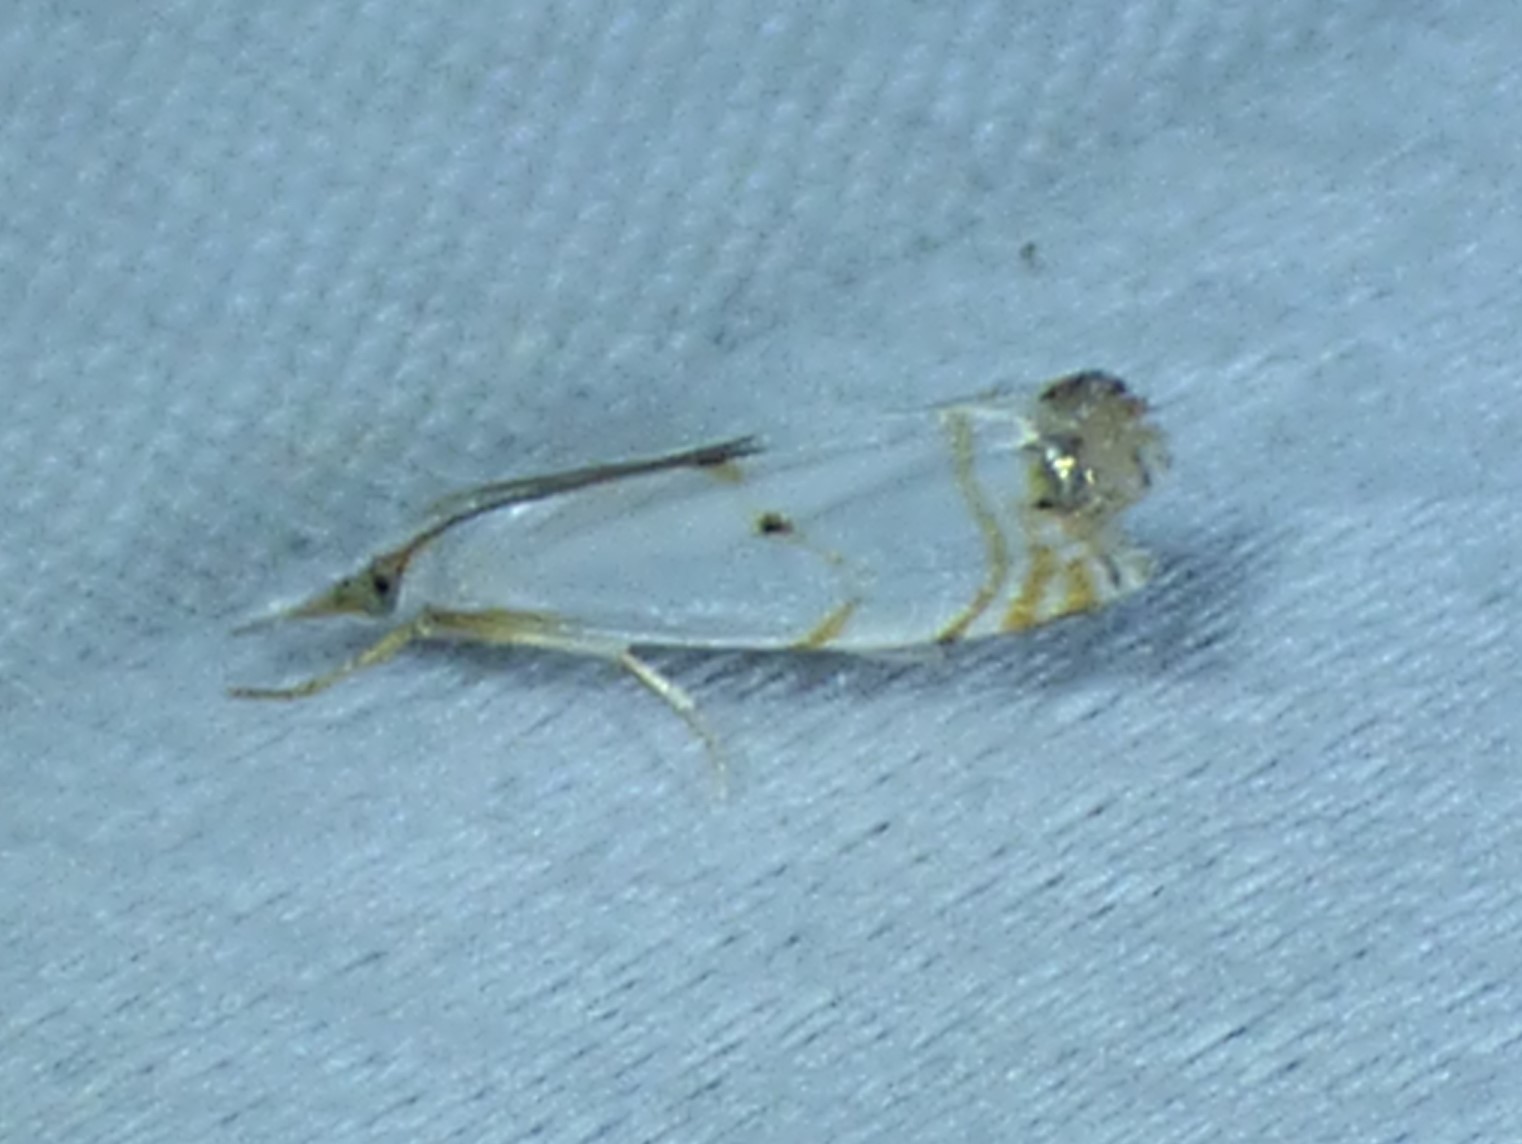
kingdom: Animalia
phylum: Arthropoda
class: Insecta
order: Lepidoptera
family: Crambidae
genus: Microcrambus
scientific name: Microcrambus biguttellus
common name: Gold-stripe grass-veneer moth
